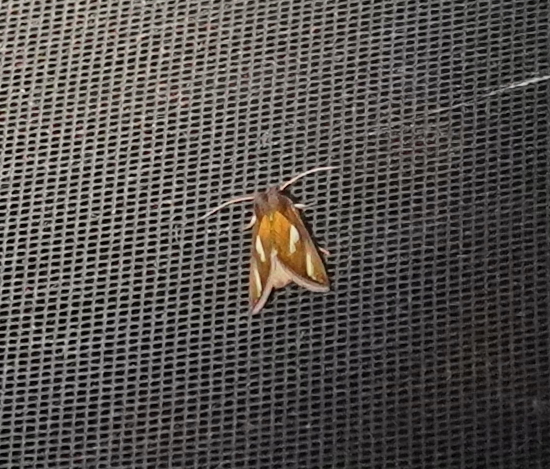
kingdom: Animalia
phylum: Arthropoda
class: Insecta
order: Lepidoptera
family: Noctuidae
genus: Plusia
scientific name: Plusia contexta
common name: Connected looper moth
